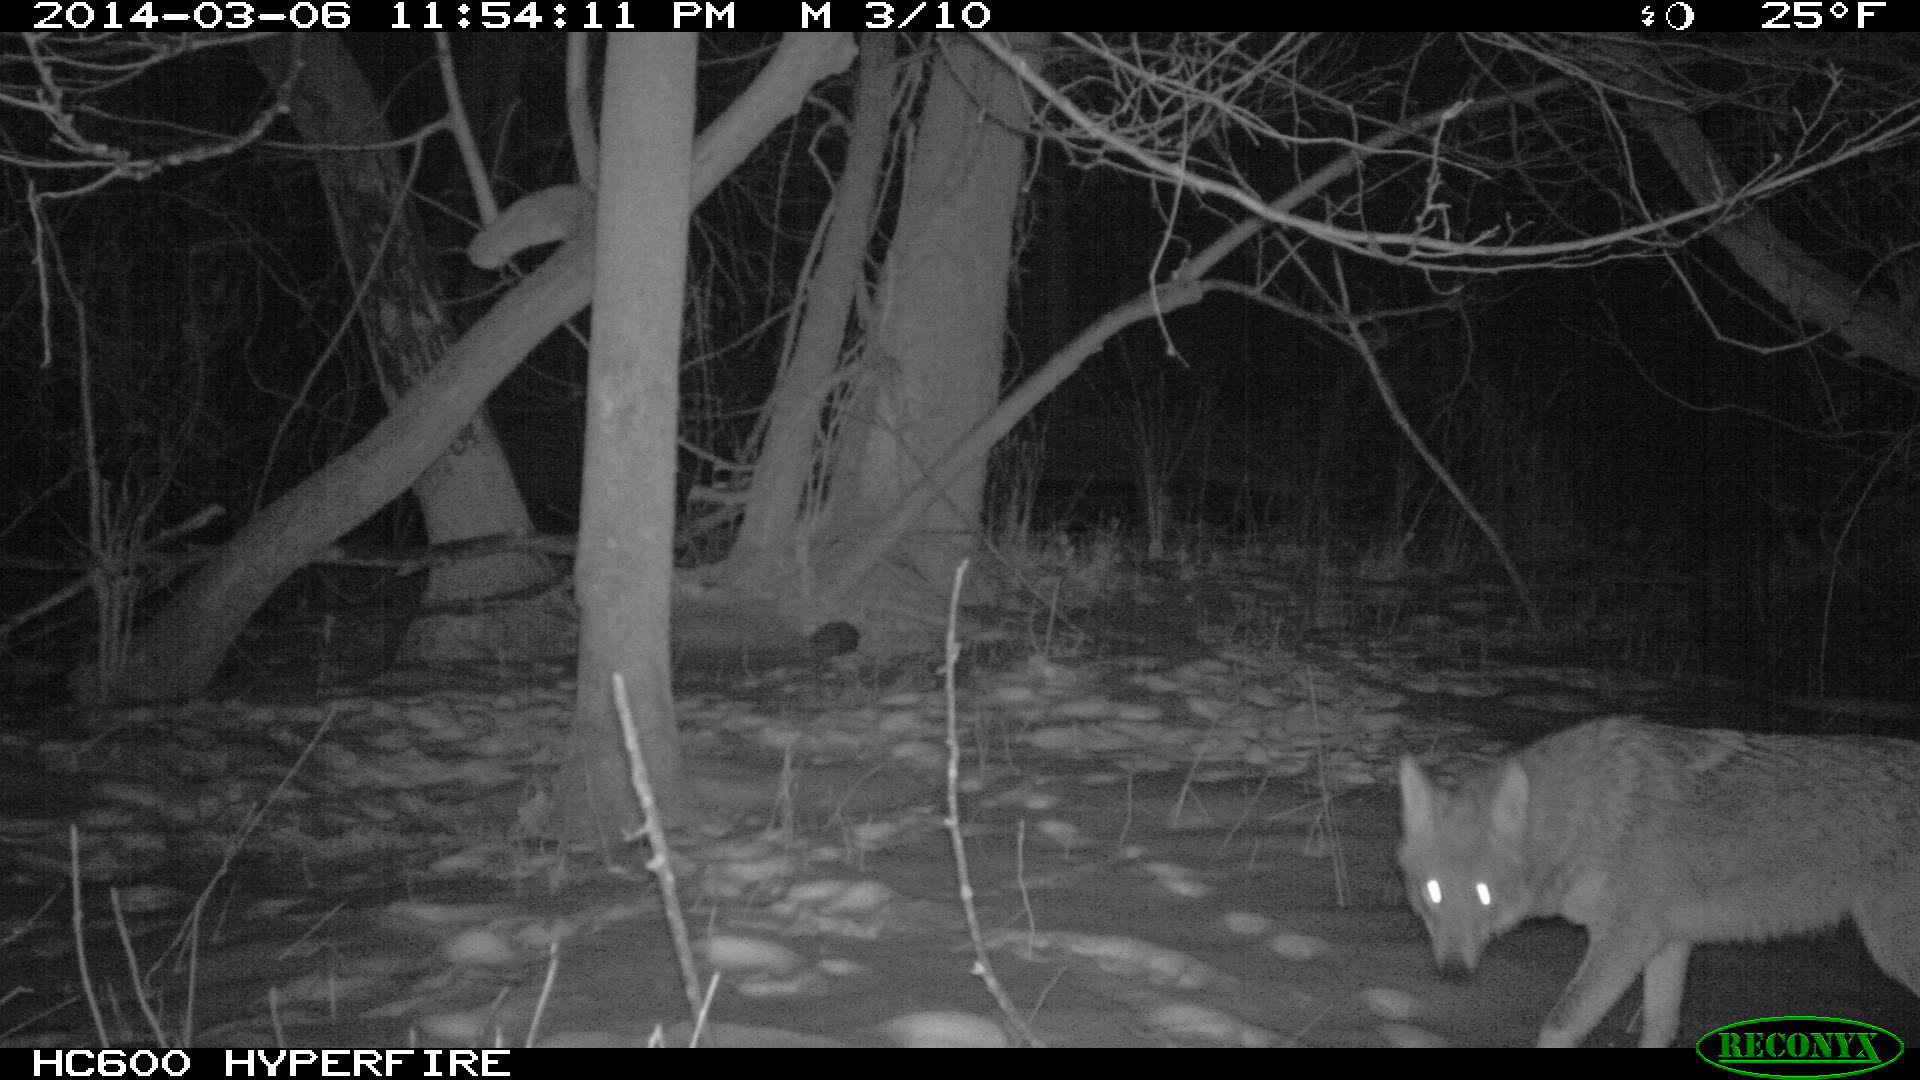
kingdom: Animalia
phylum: Chordata
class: Mammalia
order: Carnivora
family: Canidae
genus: Canis
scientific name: Canis latrans
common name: Coyote
